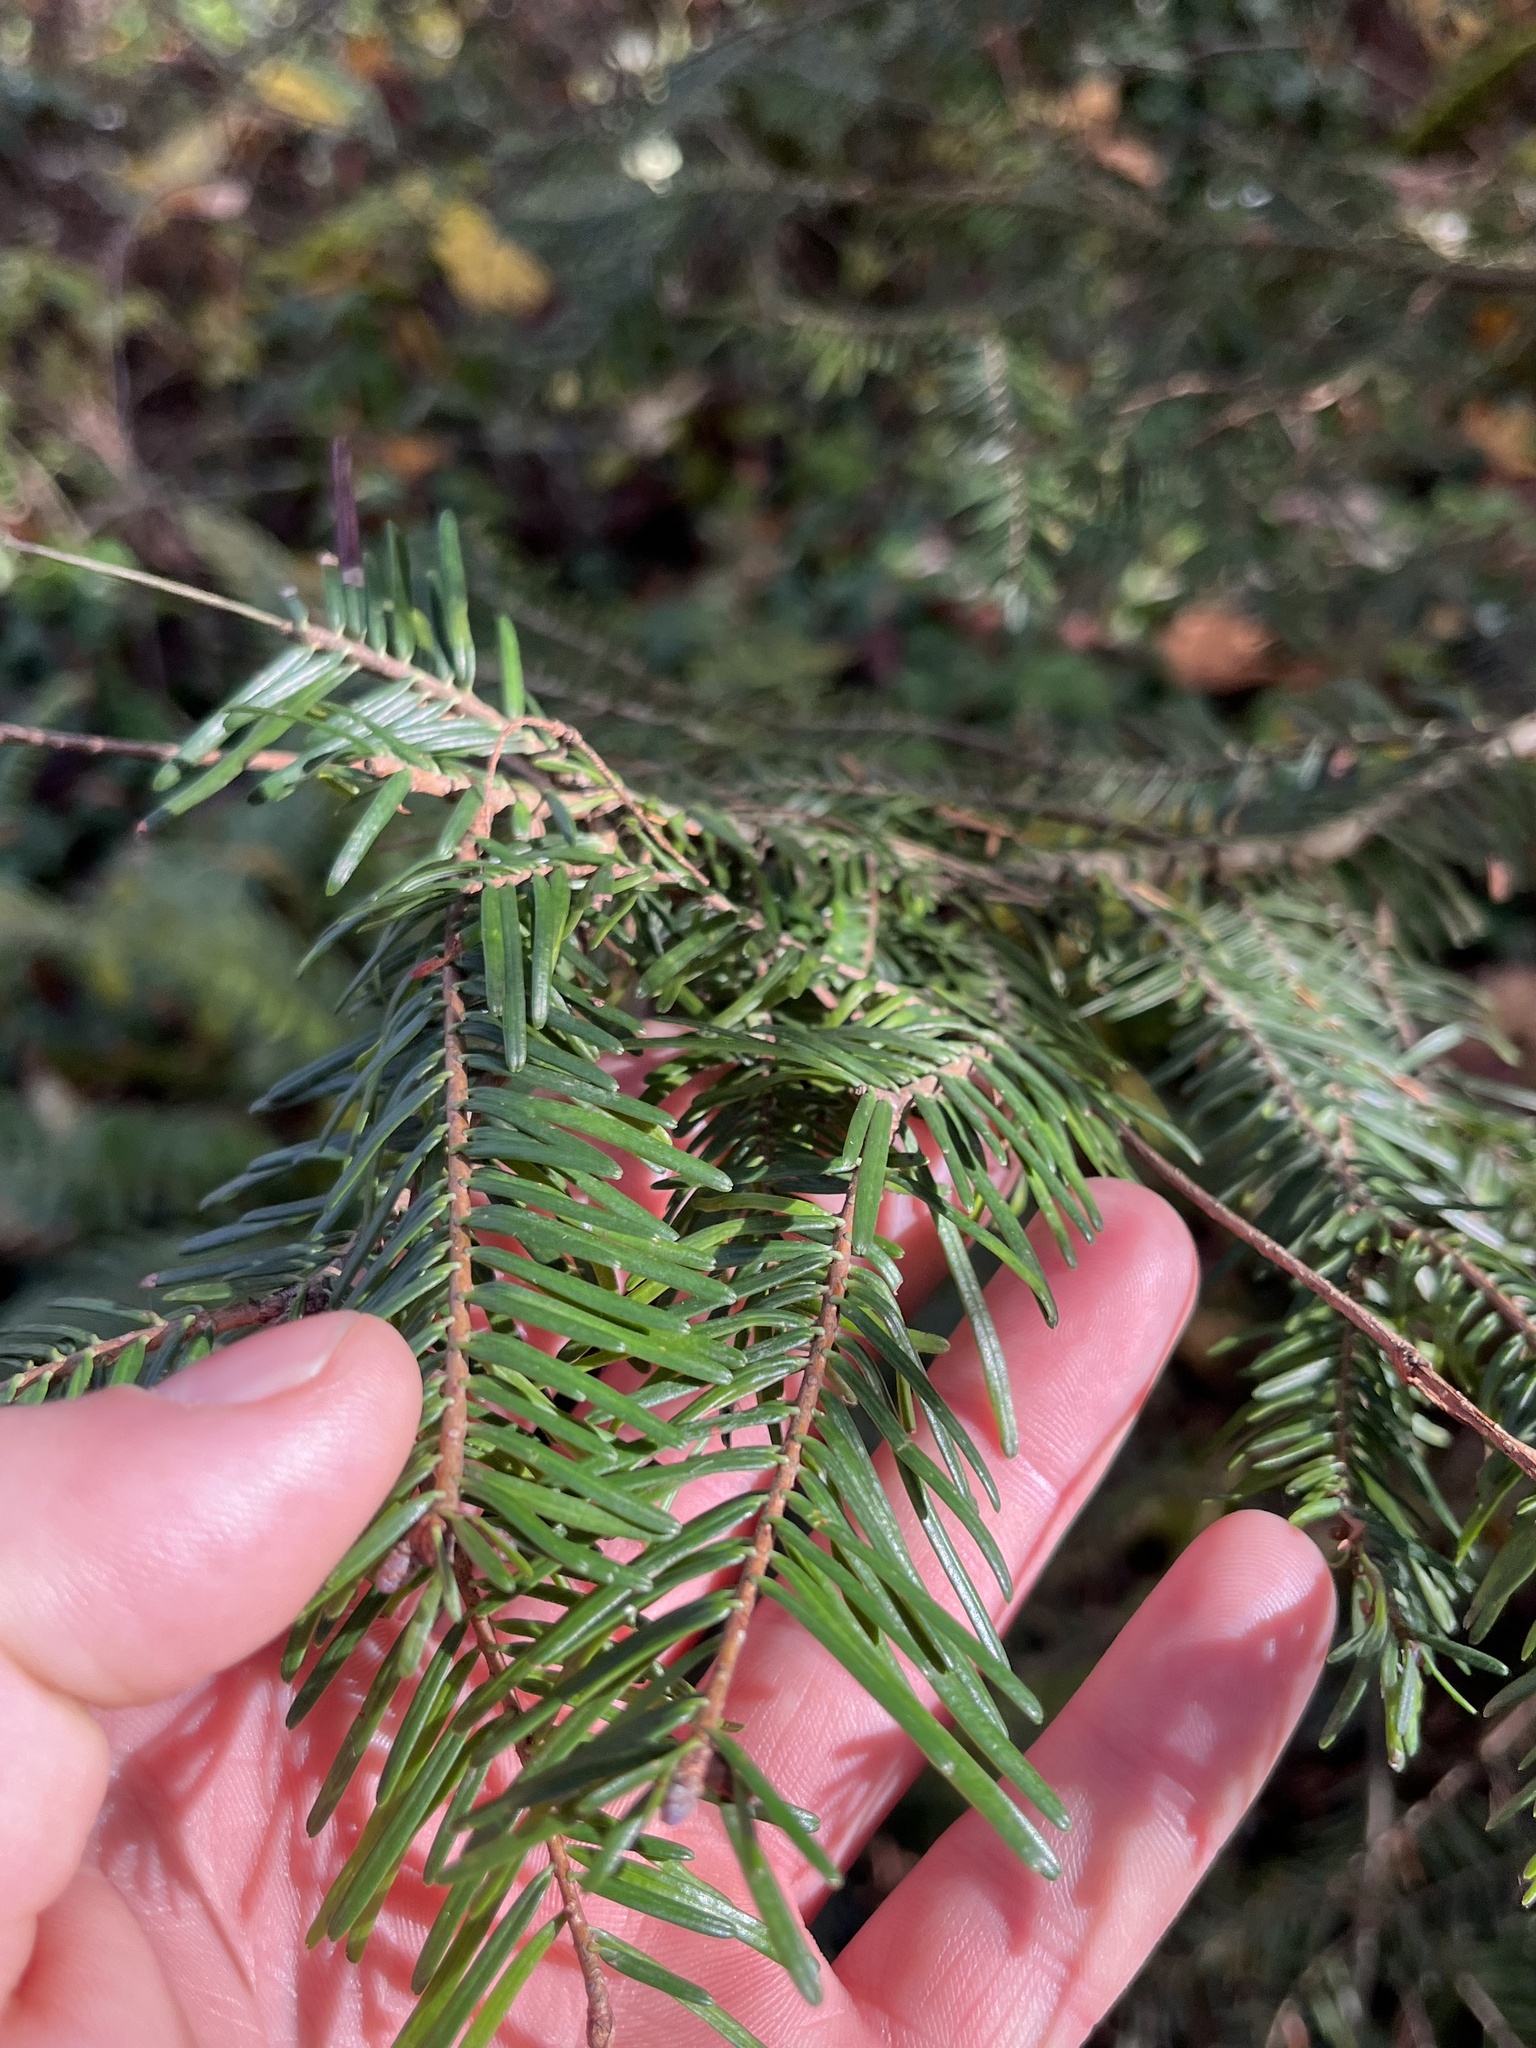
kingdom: Plantae
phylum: Tracheophyta
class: Pinopsida
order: Pinales
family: Pinaceae
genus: Abies
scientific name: Abies grandis
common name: Giant fir
